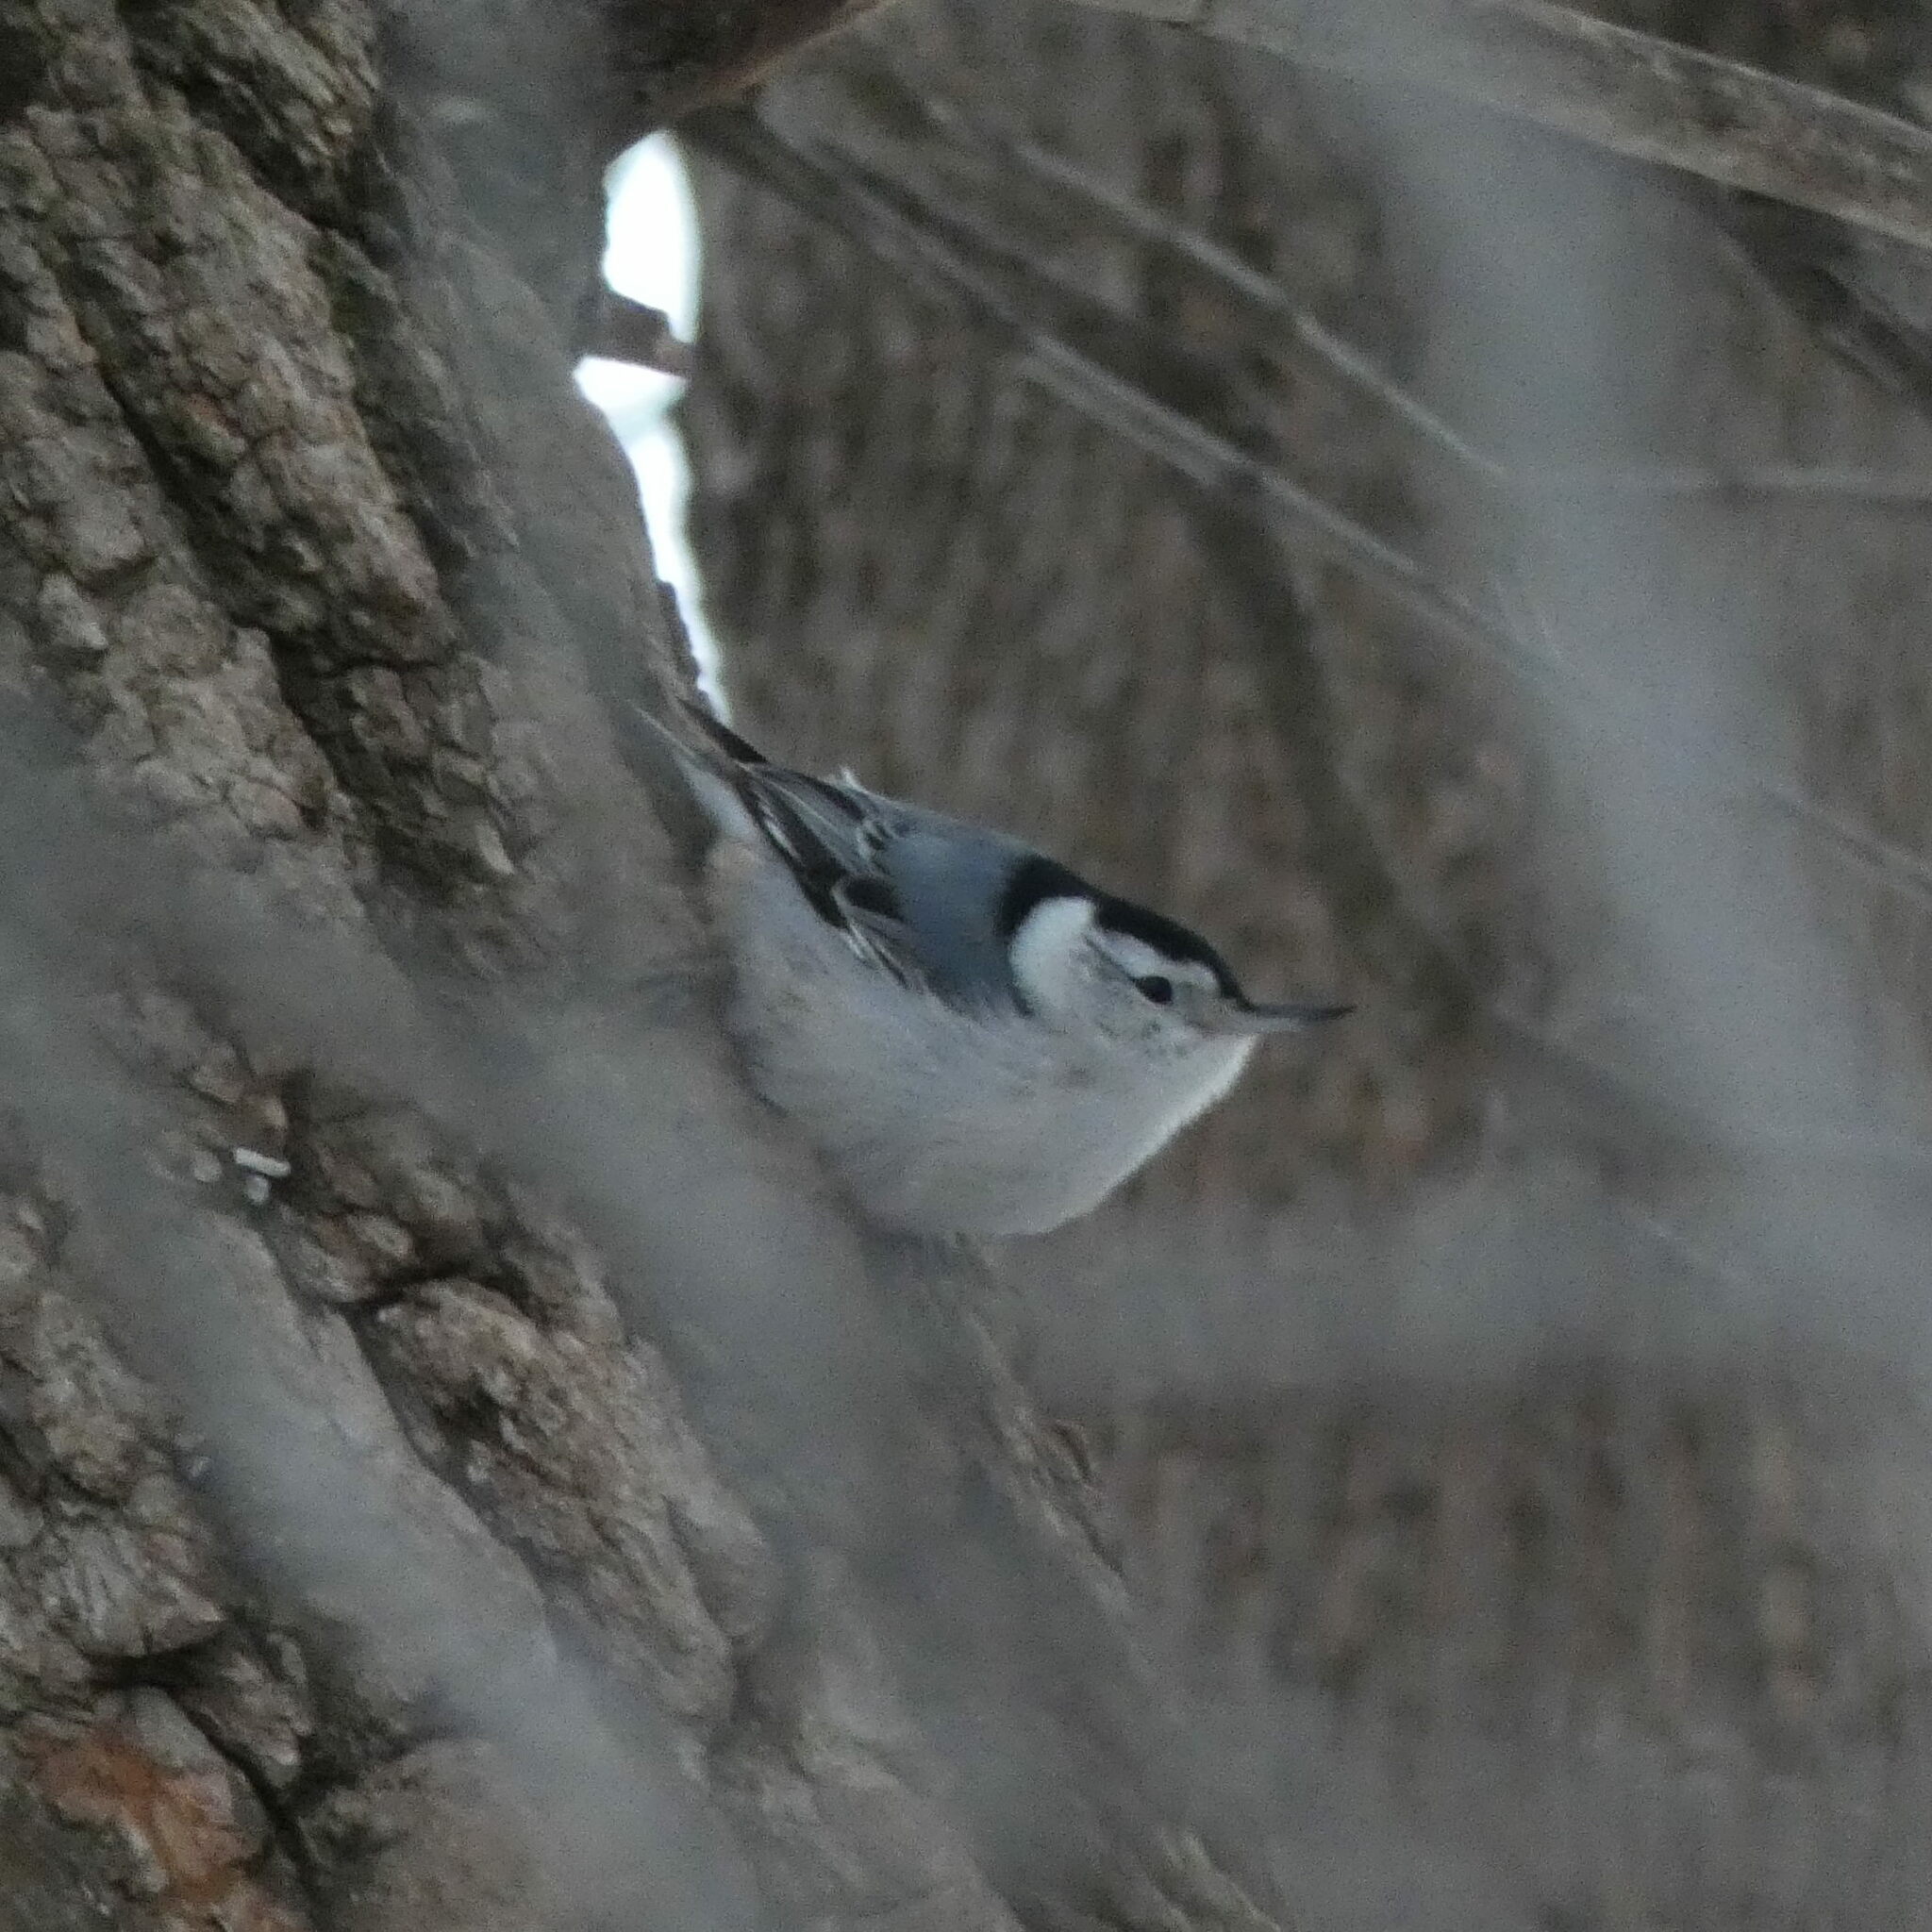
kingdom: Animalia
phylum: Chordata
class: Aves
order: Passeriformes
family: Sittidae
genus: Sitta
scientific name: Sitta carolinensis
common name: White-breasted nuthatch
